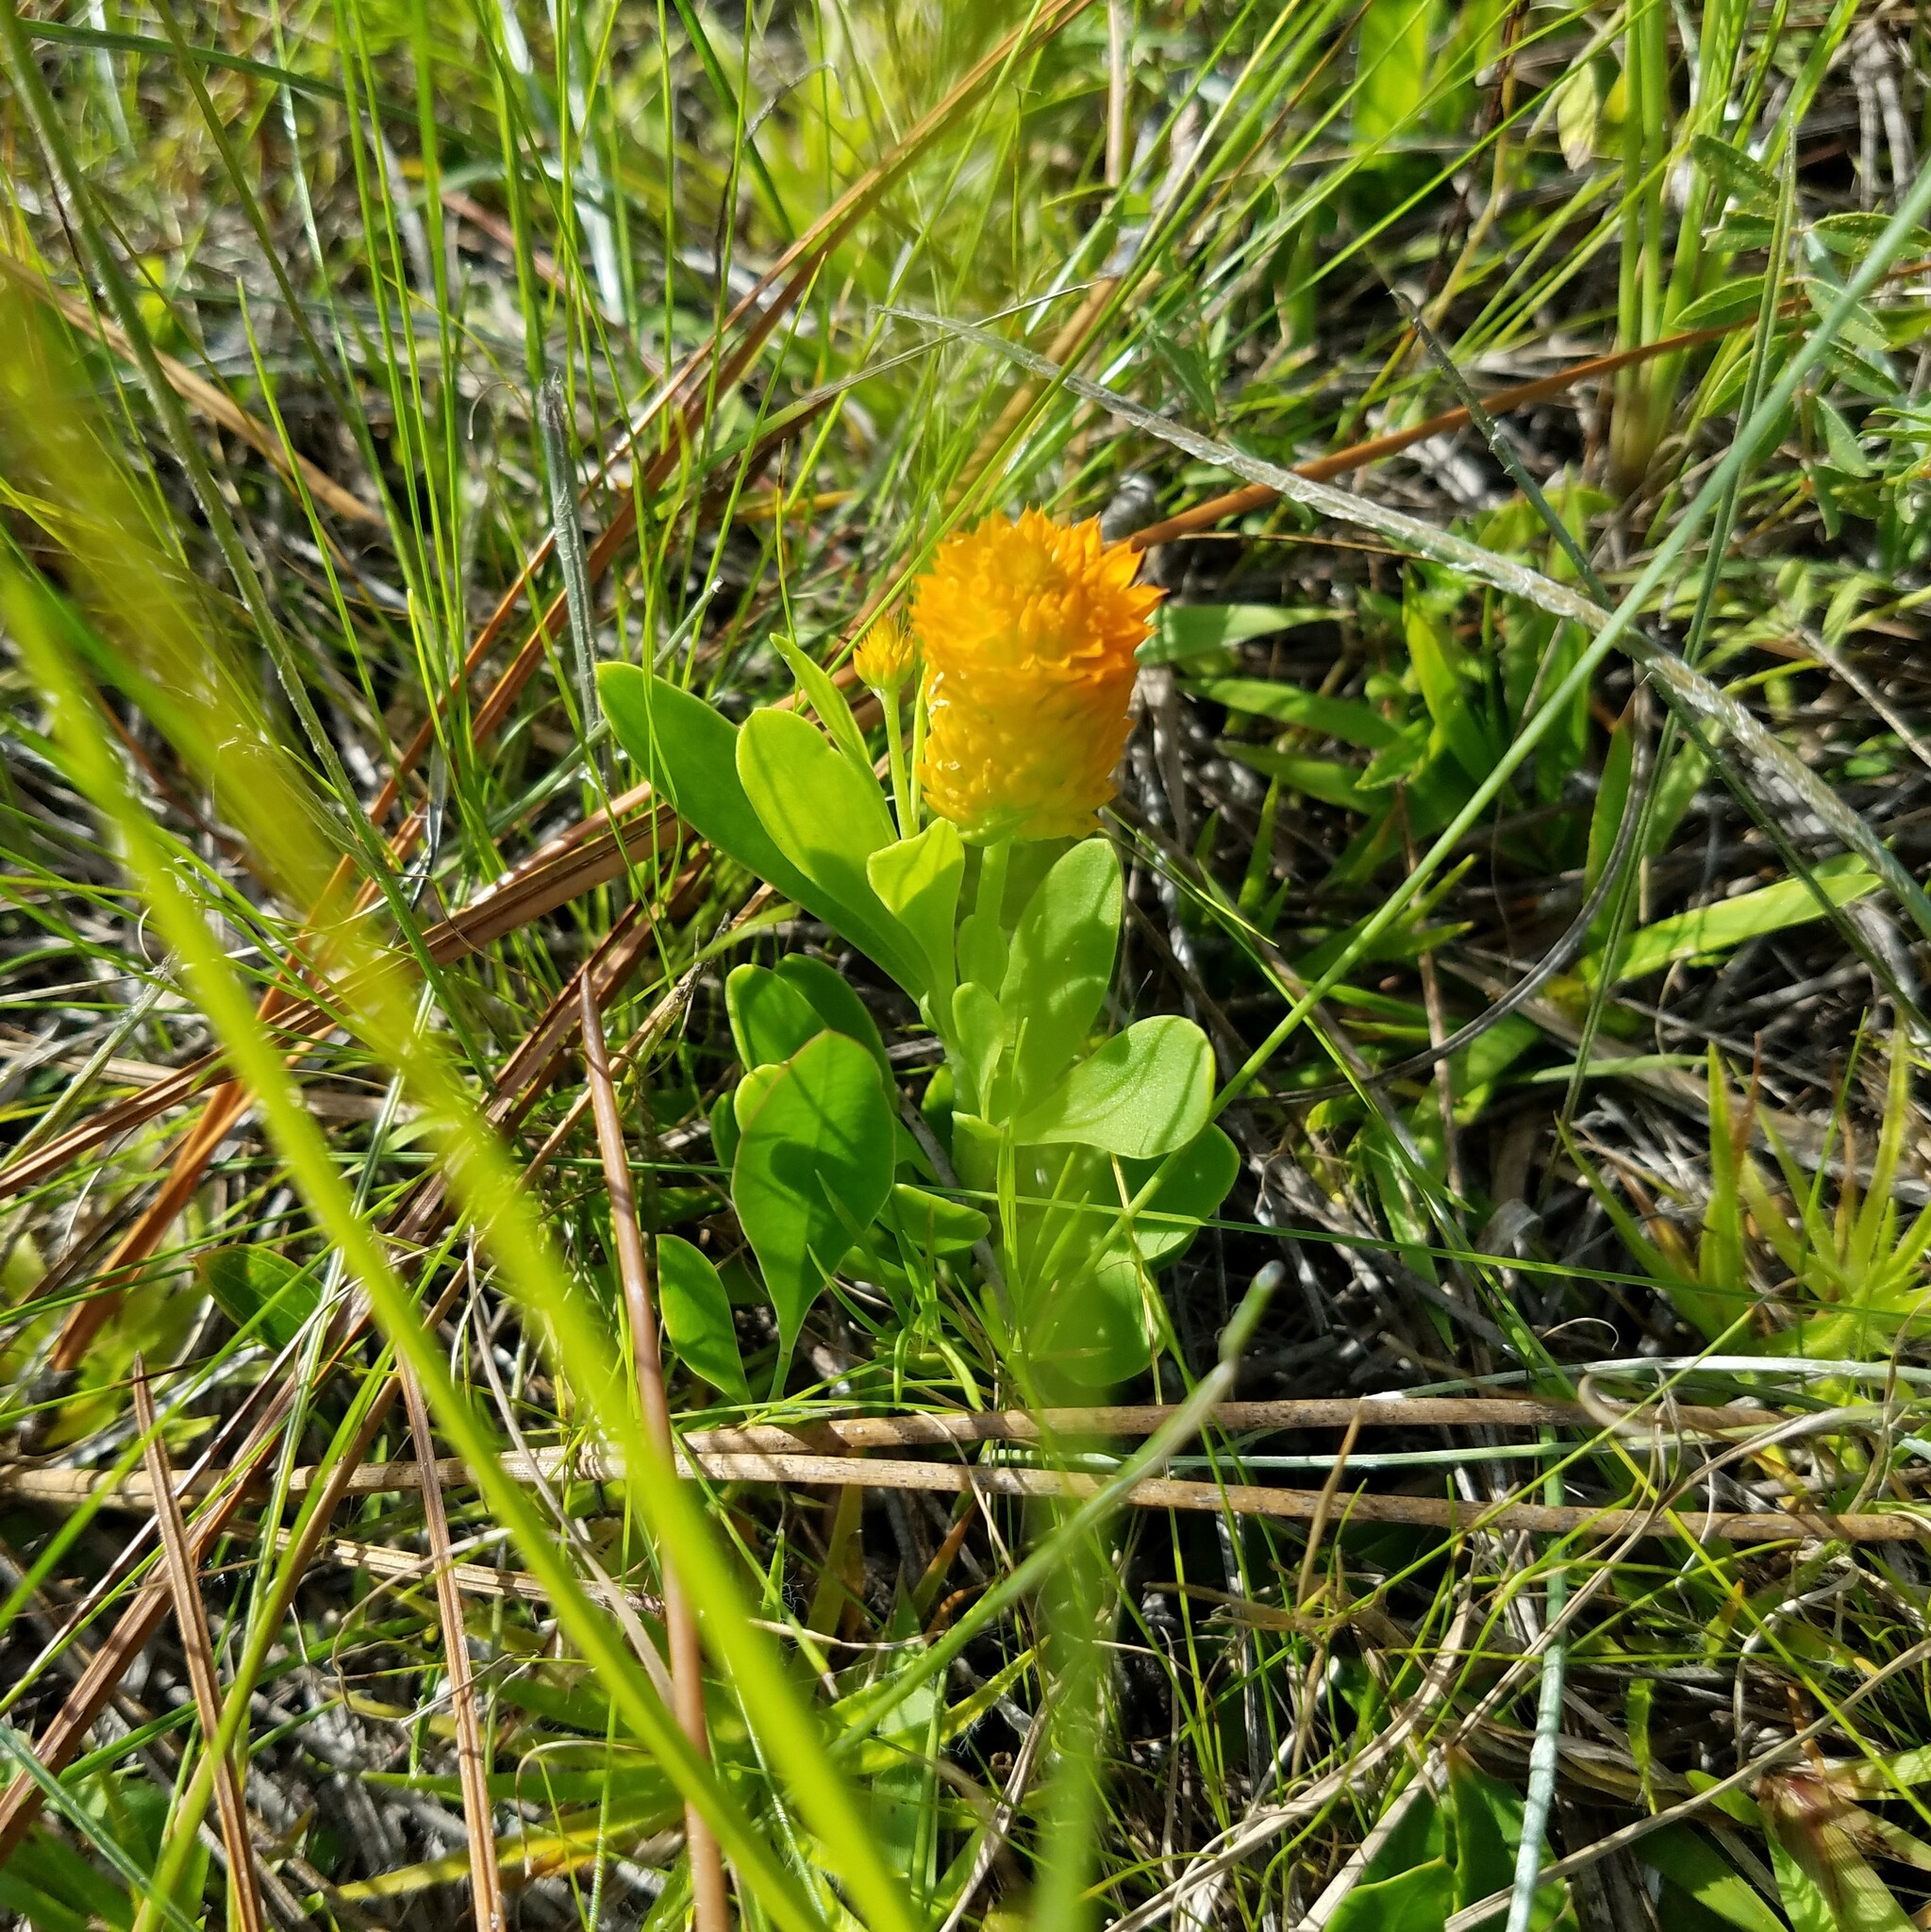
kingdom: Plantae
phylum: Tracheophyta
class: Magnoliopsida
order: Fabales
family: Polygalaceae
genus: Polygala
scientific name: Polygala lutea
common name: Orange milkwort
